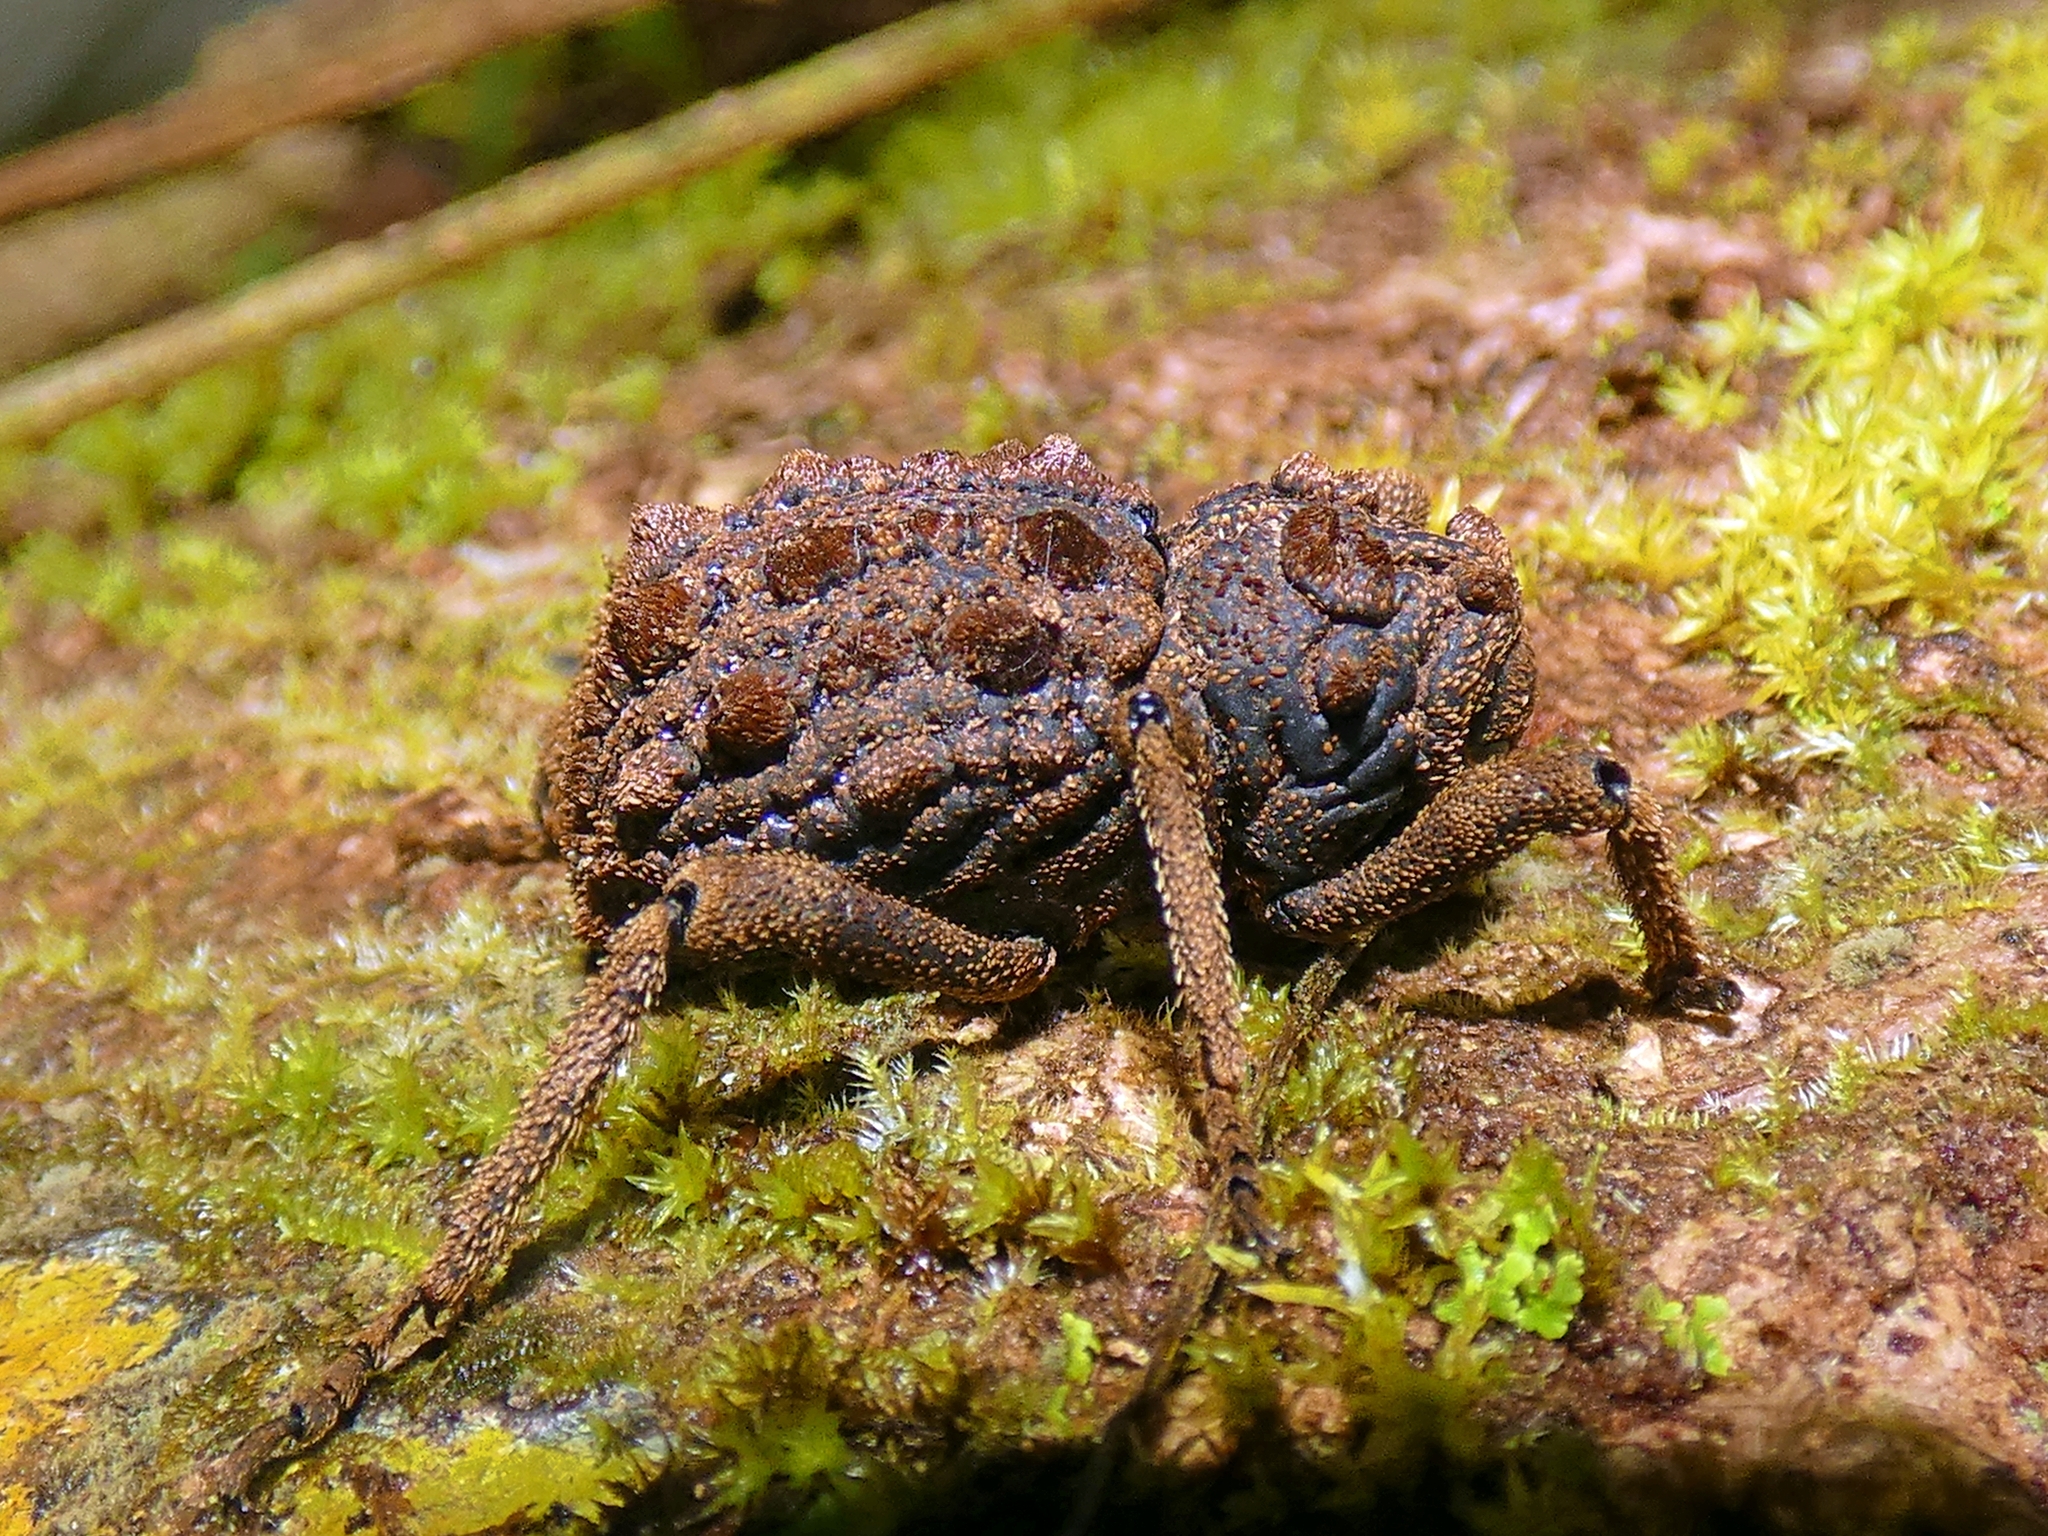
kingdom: Animalia
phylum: Arthropoda
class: Insecta
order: Coleoptera
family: Curculionidae
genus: Poropterus
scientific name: Poropterus magnus
